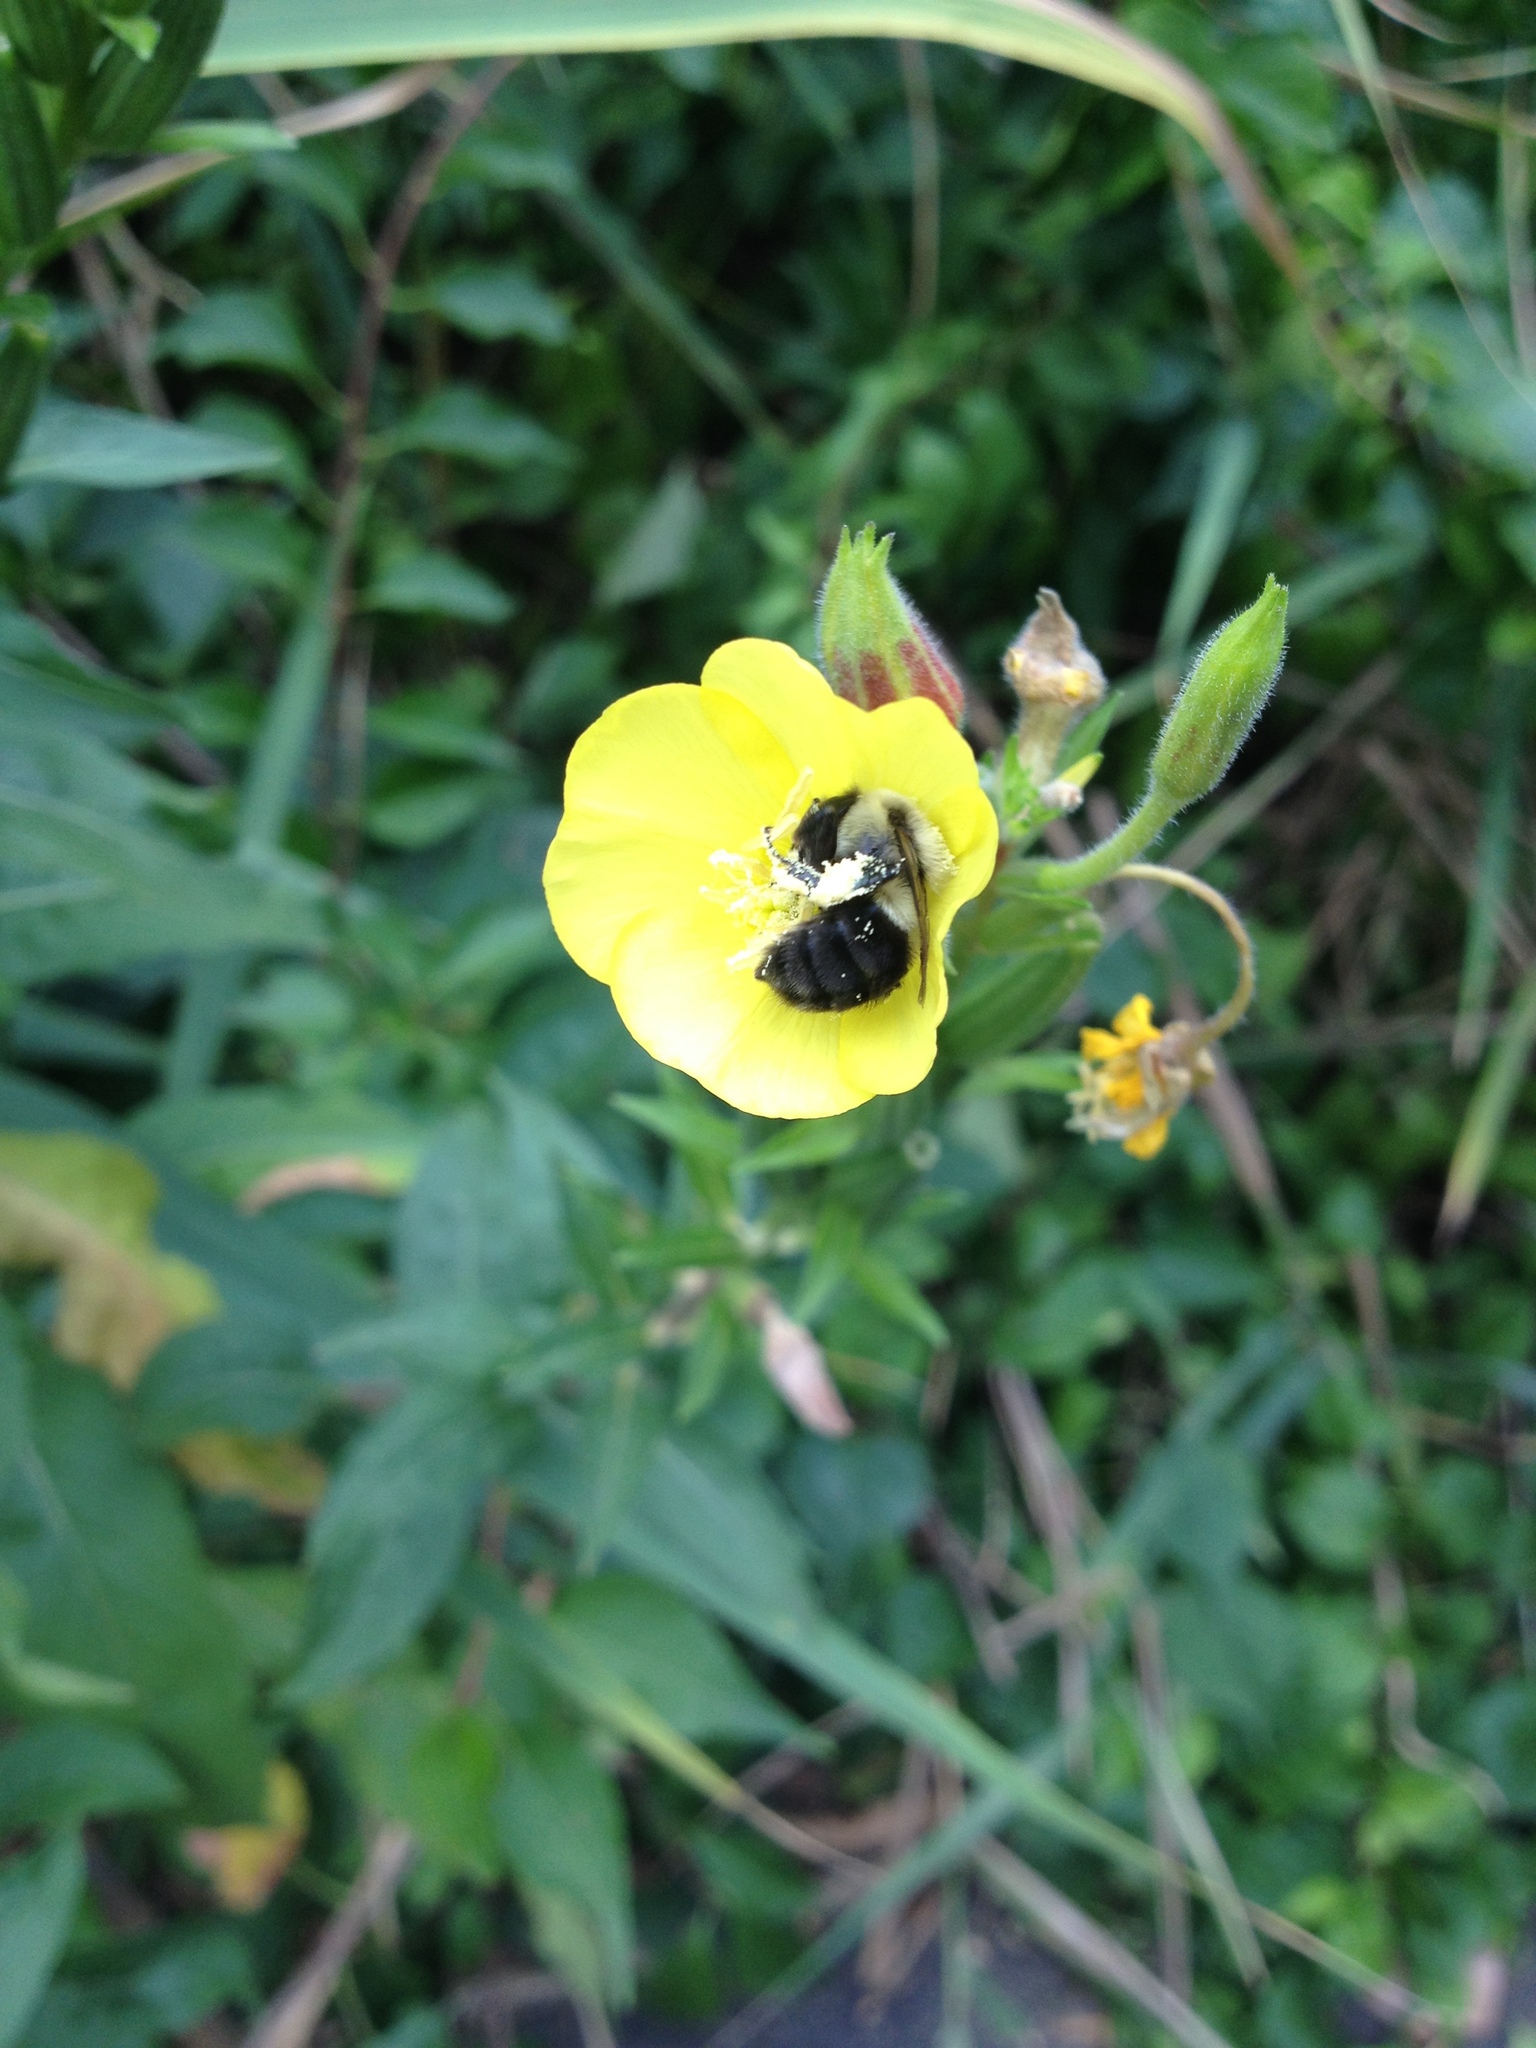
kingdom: Animalia
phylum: Arthropoda
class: Insecta
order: Hymenoptera
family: Apidae
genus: Bombus
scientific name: Bombus impatiens
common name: Common eastern bumble bee
